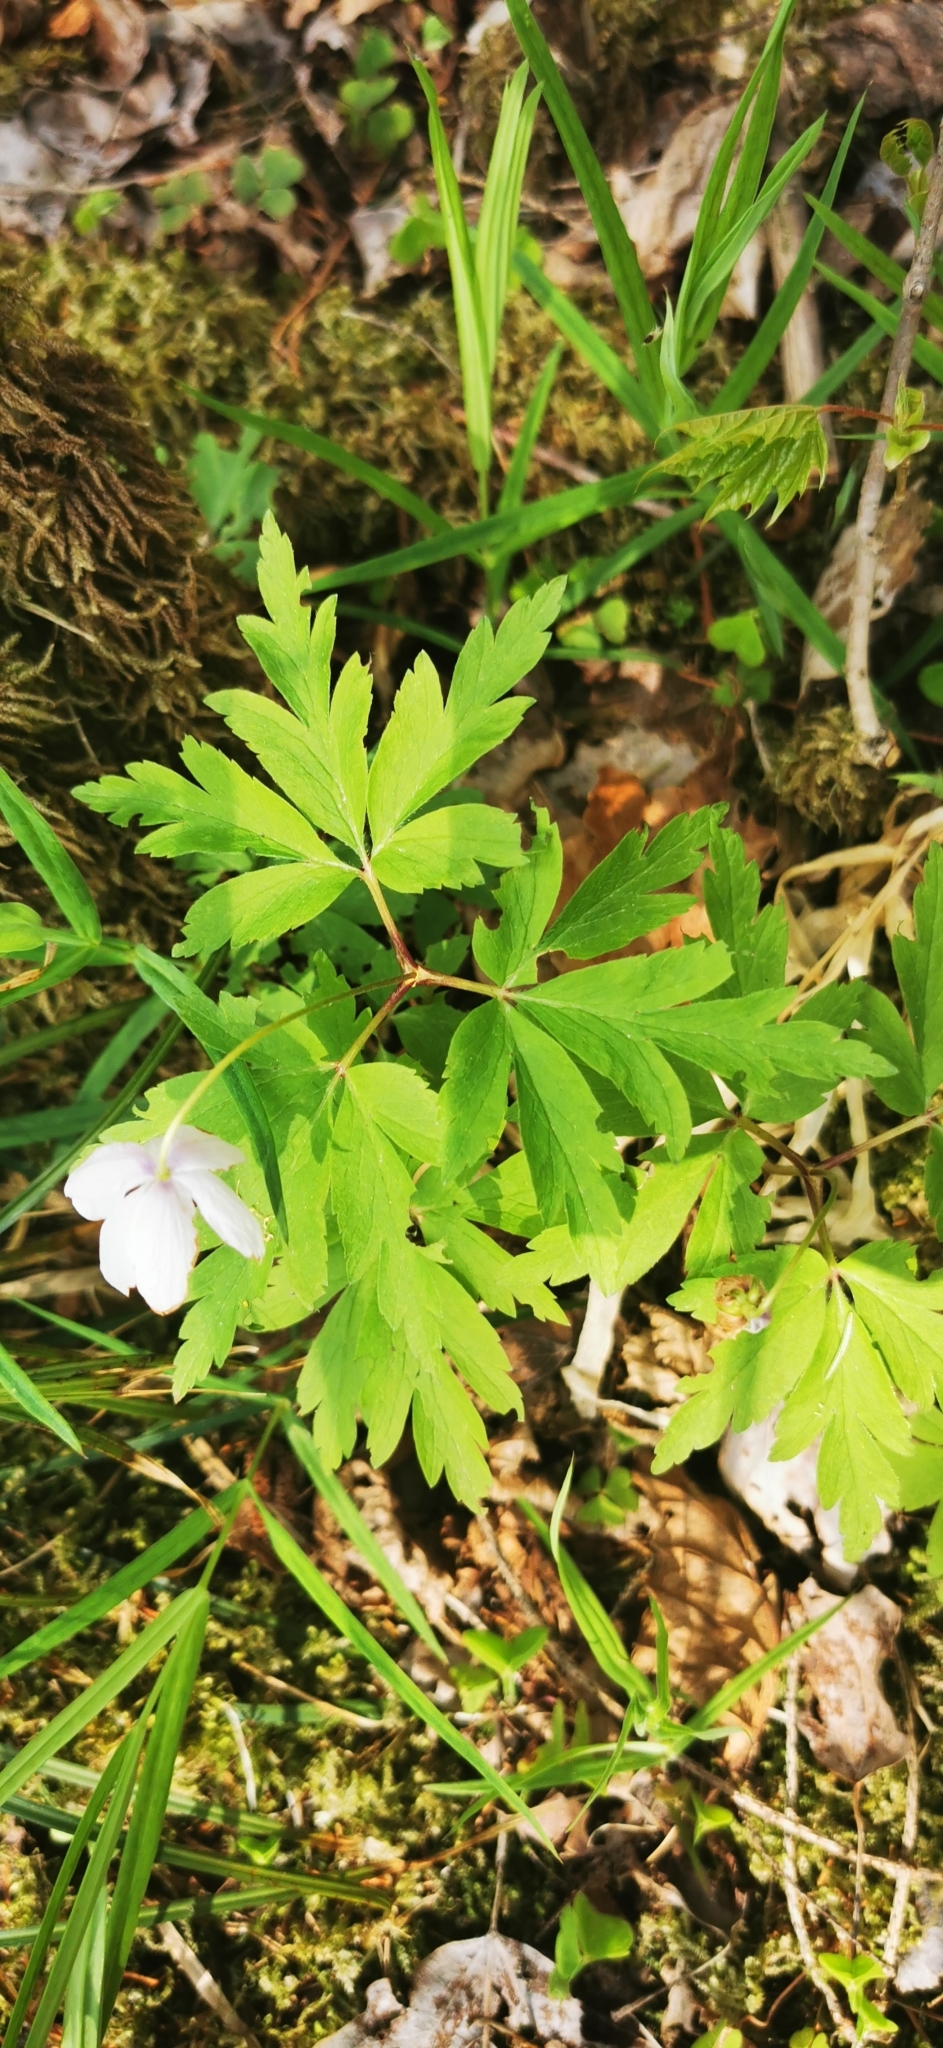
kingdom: Plantae
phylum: Tracheophyta
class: Magnoliopsida
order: Ranunculales
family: Ranunculaceae
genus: Anemone
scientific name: Anemone nemorosa
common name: Wood anemone
